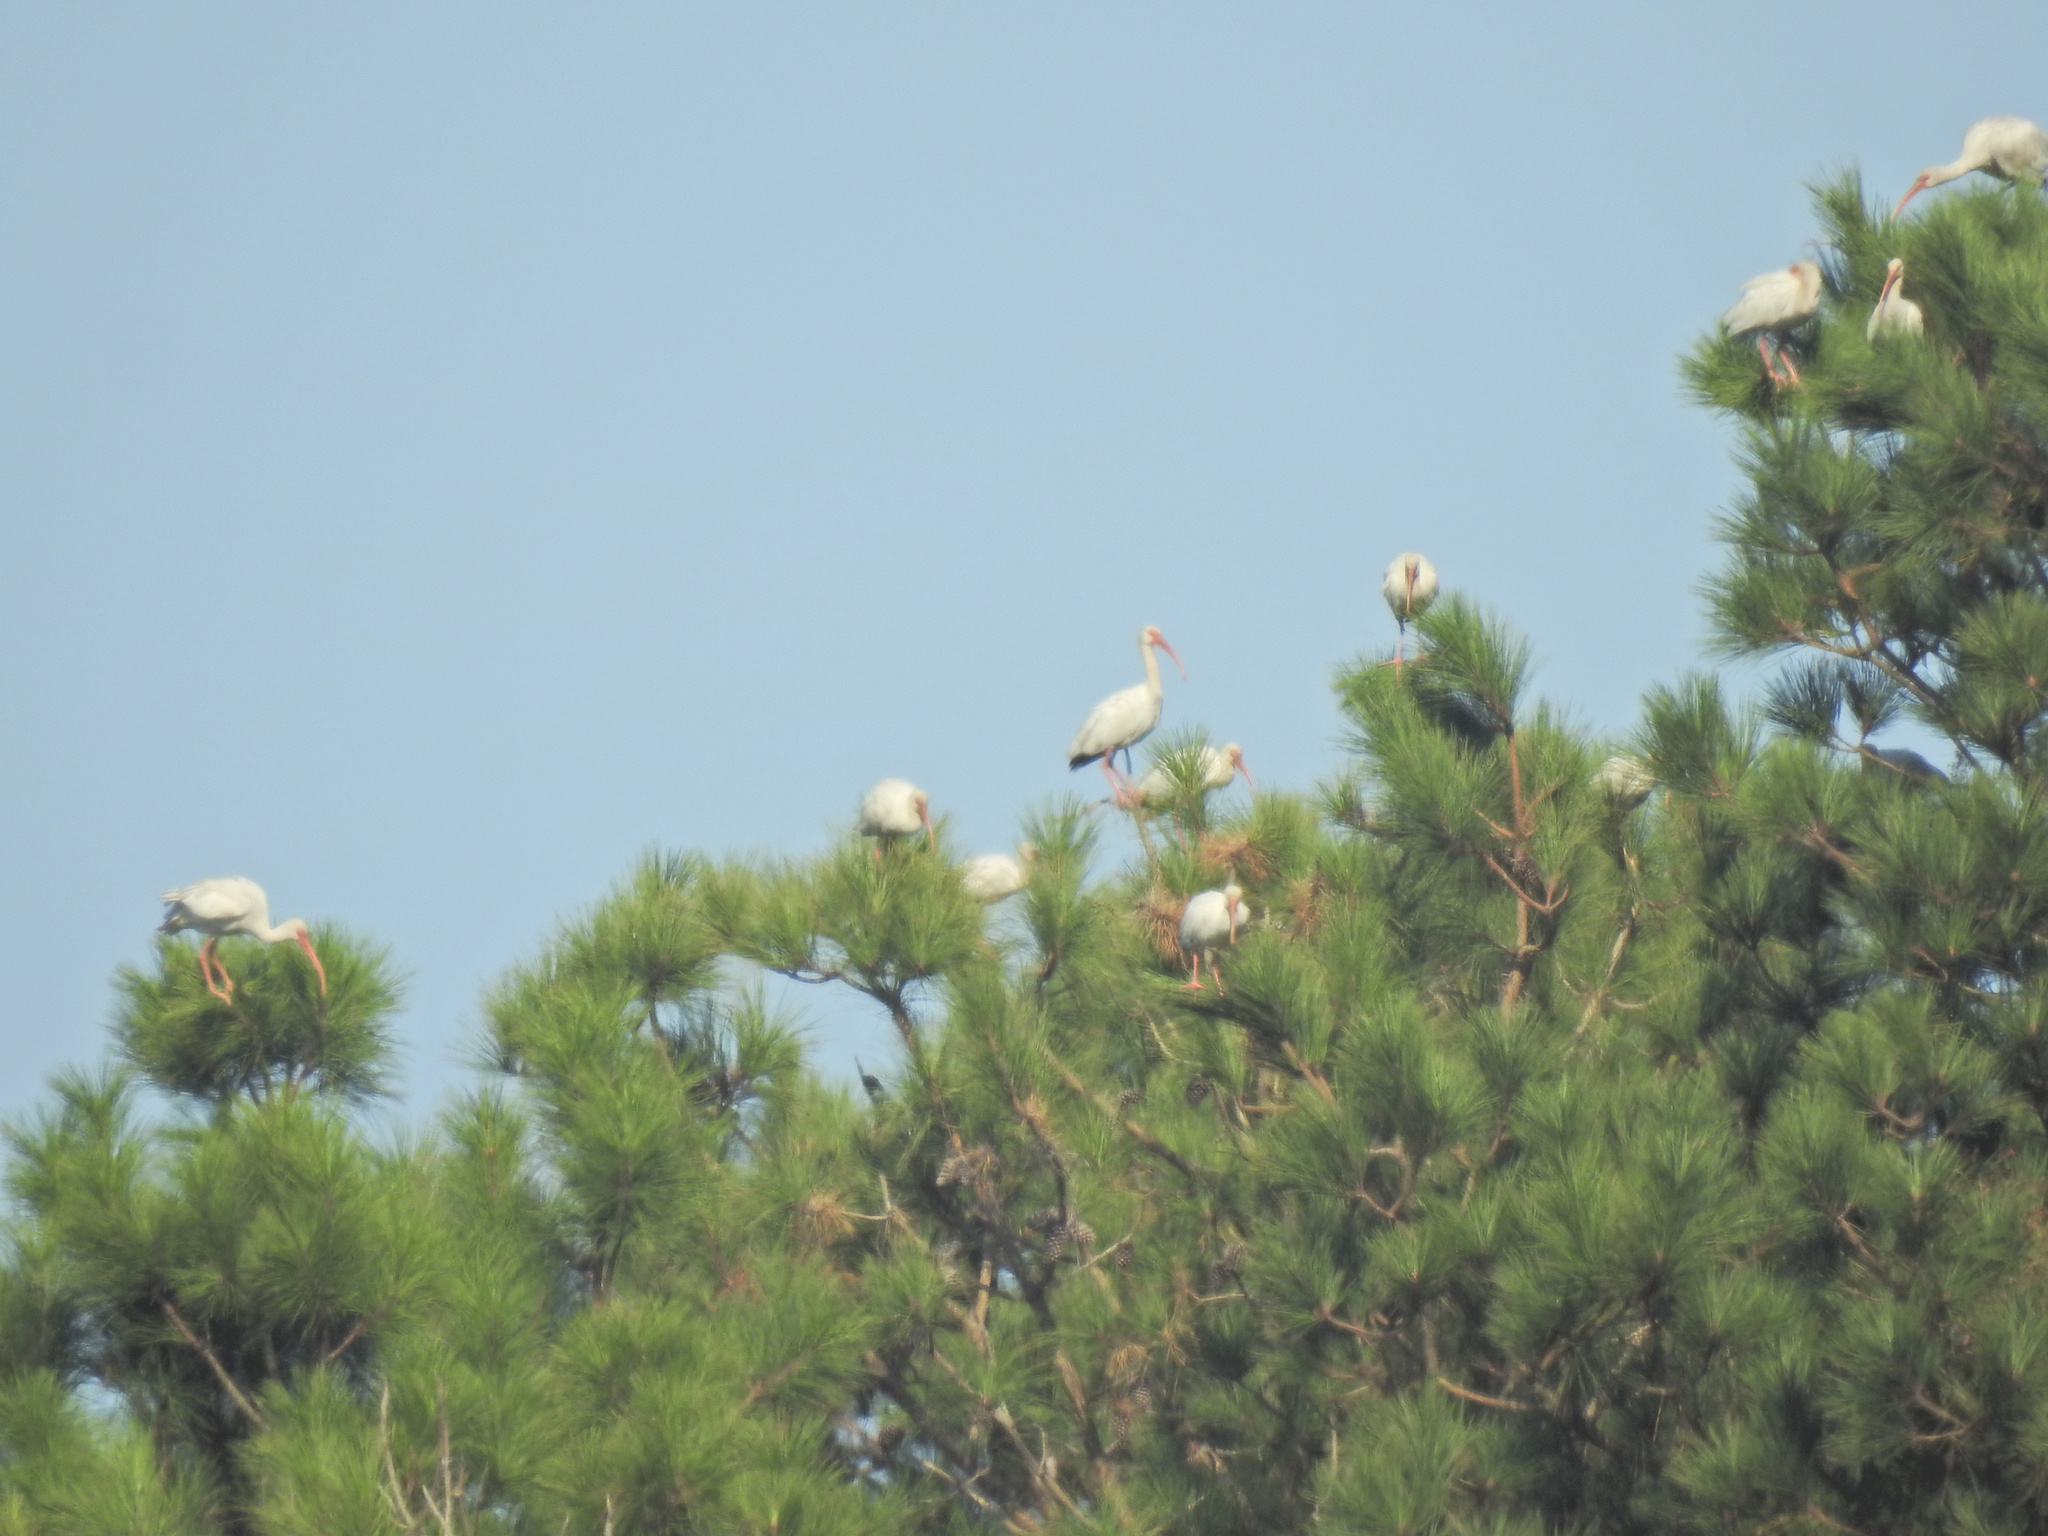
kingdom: Animalia
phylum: Chordata
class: Aves
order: Pelecaniformes
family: Threskiornithidae
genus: Eudocimus
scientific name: Eudocimus albus
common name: White ibis
